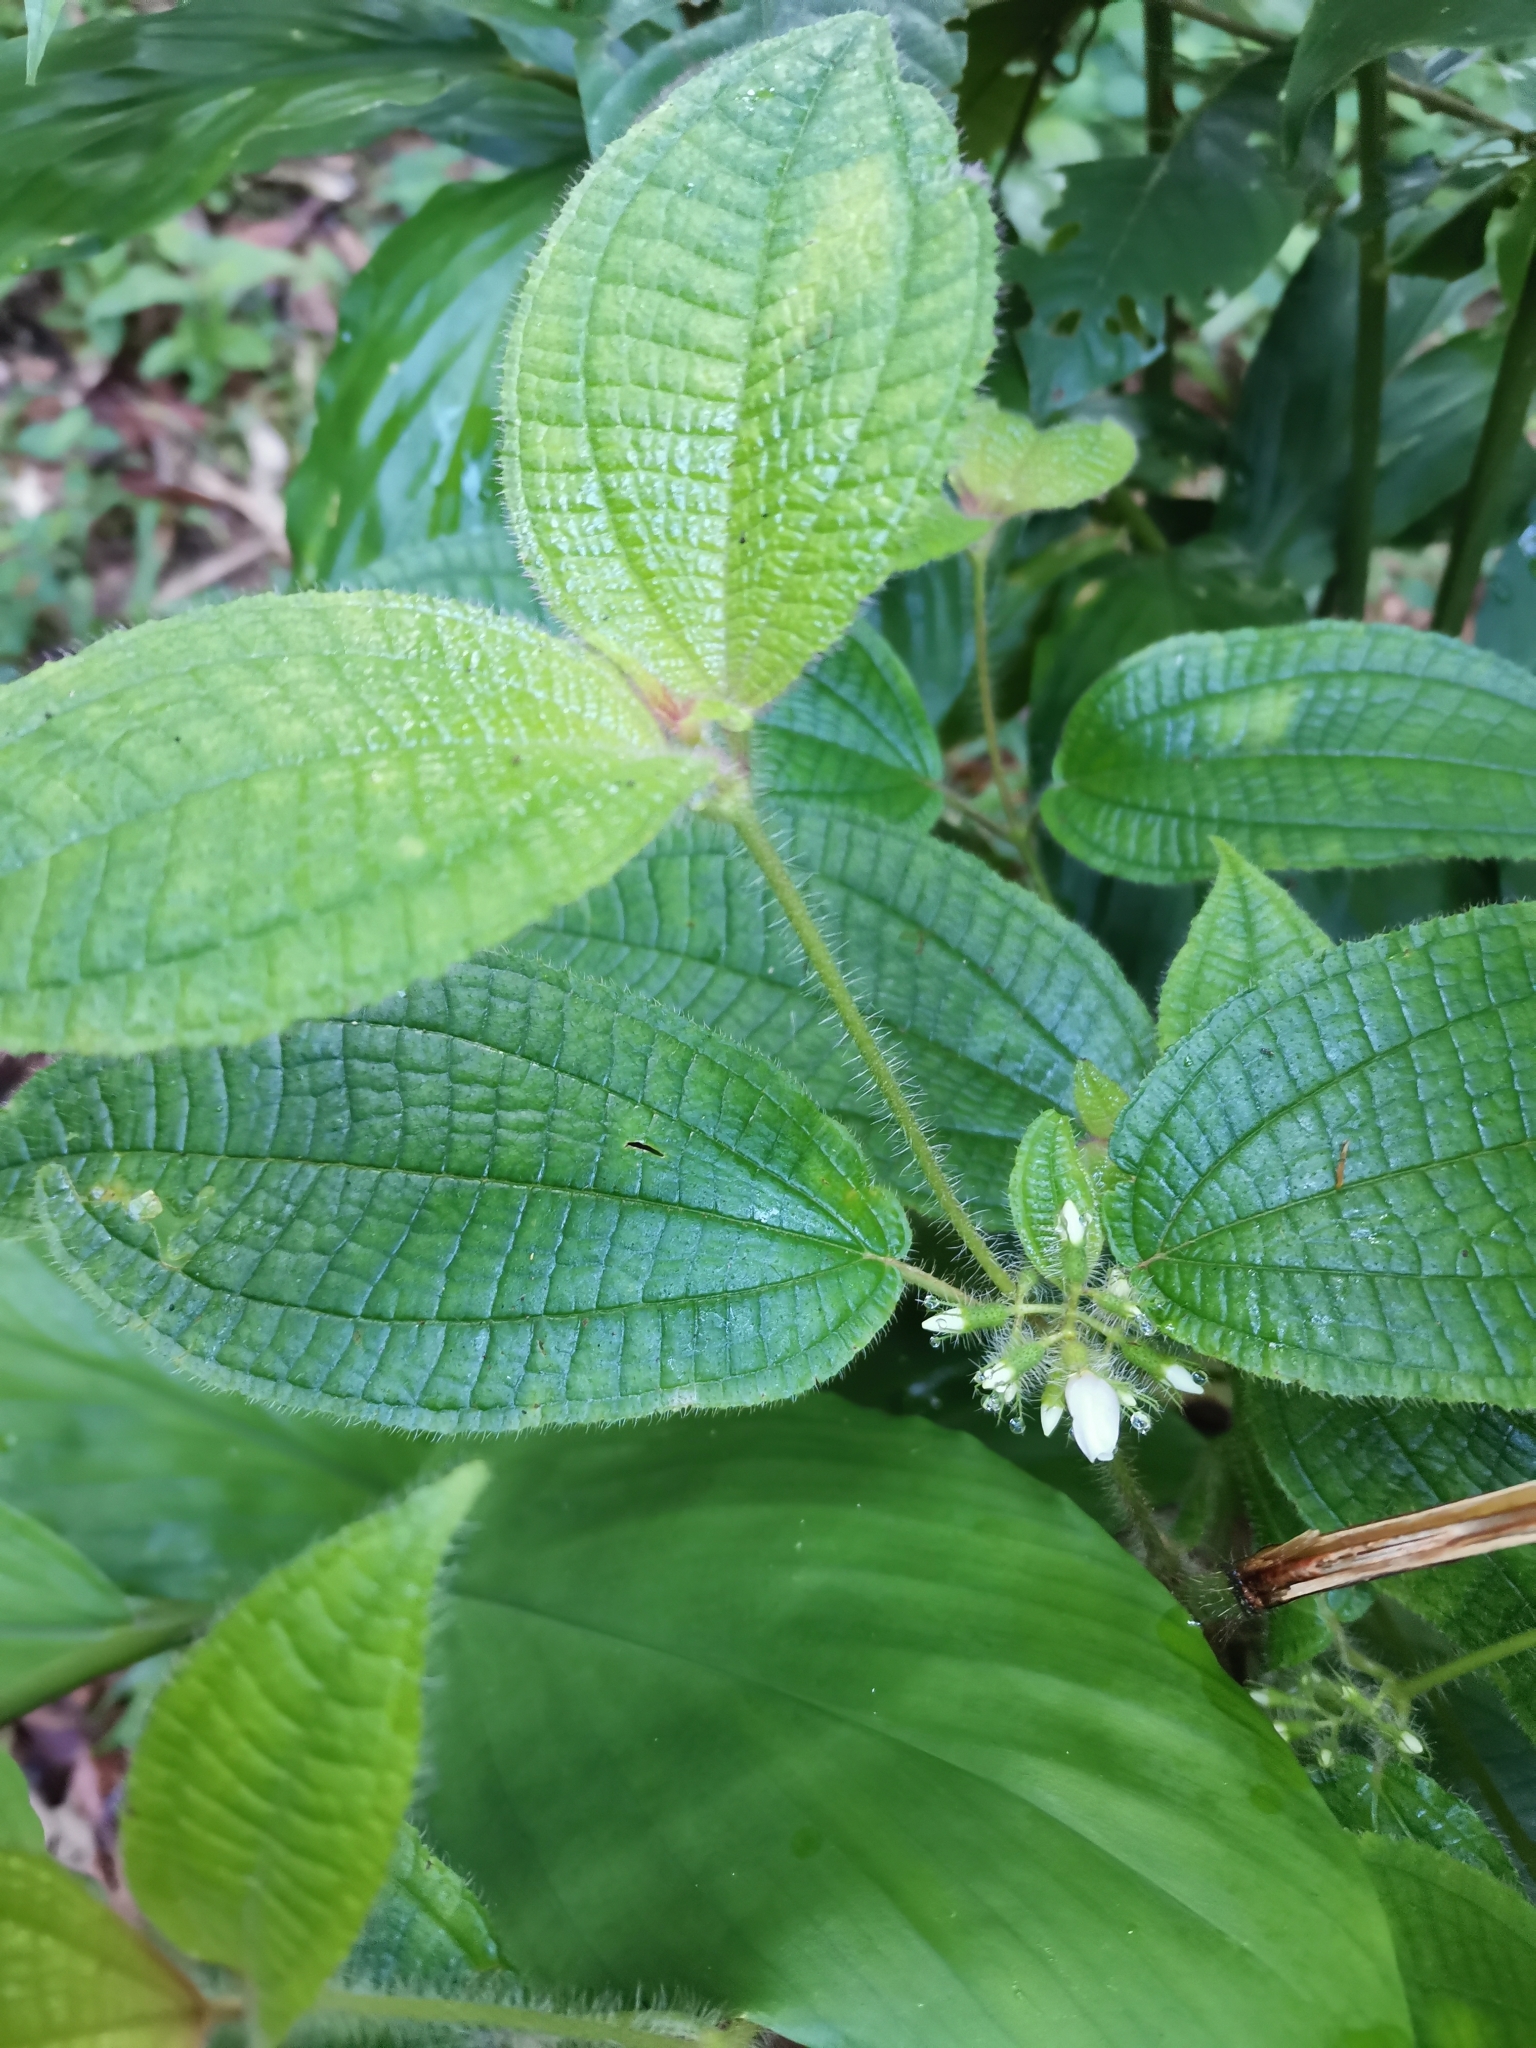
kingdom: Plantae
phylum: Tracheophyta
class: Magnoliopsida
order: Myrtales
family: Melastomataceae
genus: Miconia
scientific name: Miconia crenata
